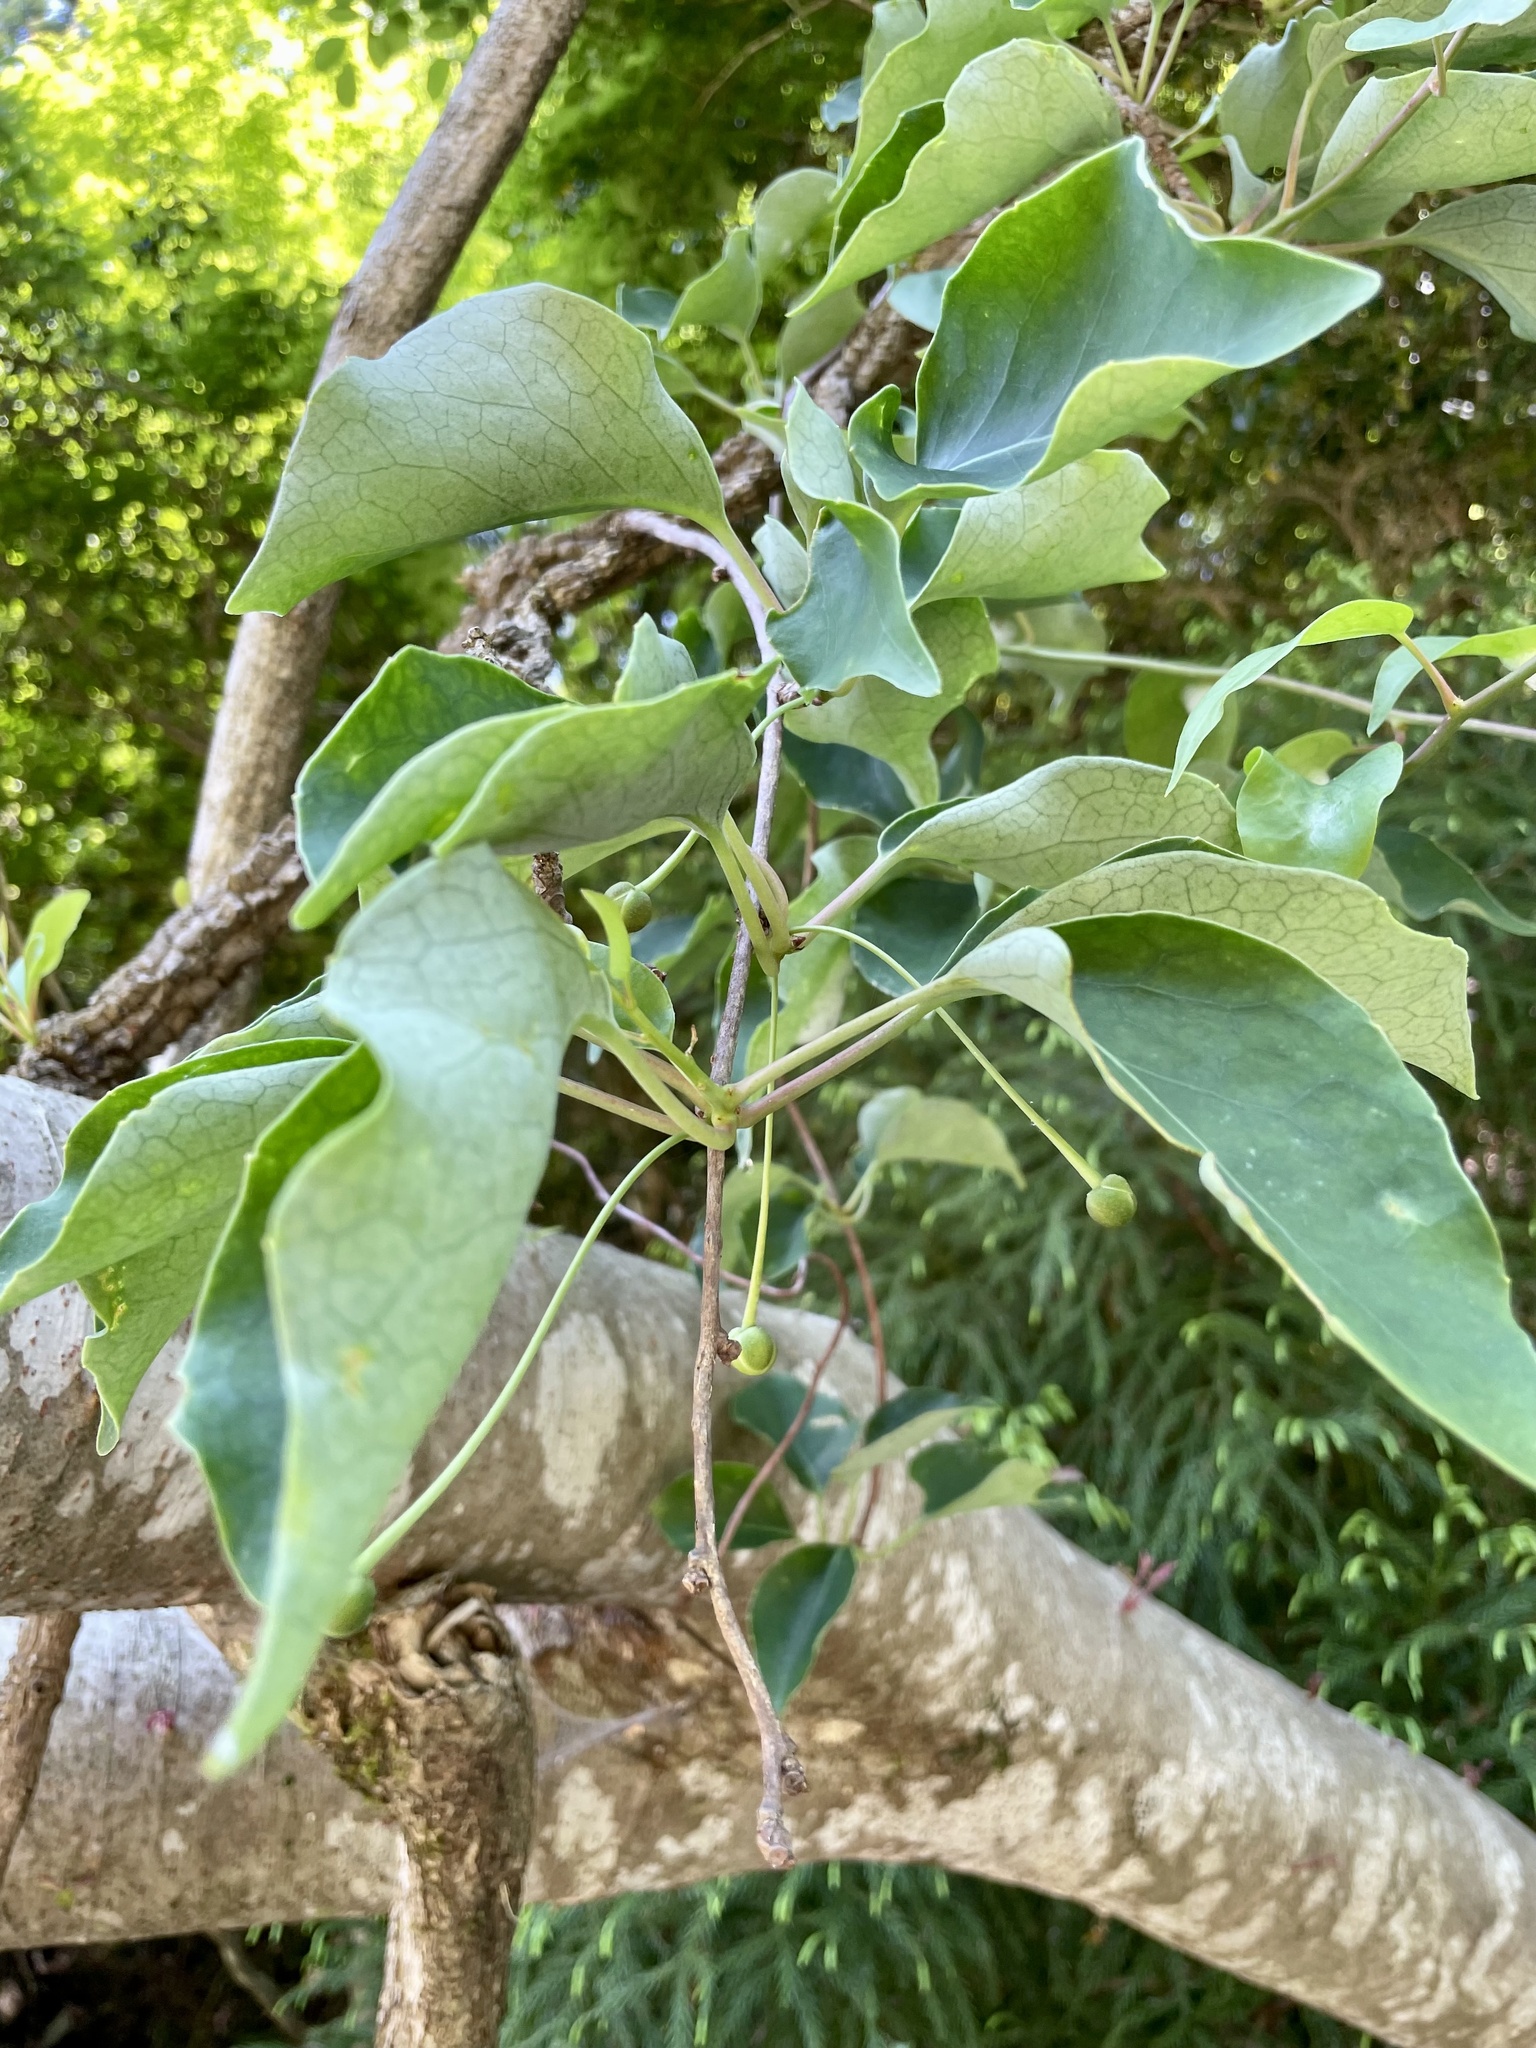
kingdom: Plantae
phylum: Tracheophyta
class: Magnoliopsida
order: Austrobaileyales
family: Schisandraceae
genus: Schisandra
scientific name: Schisandra repanda
